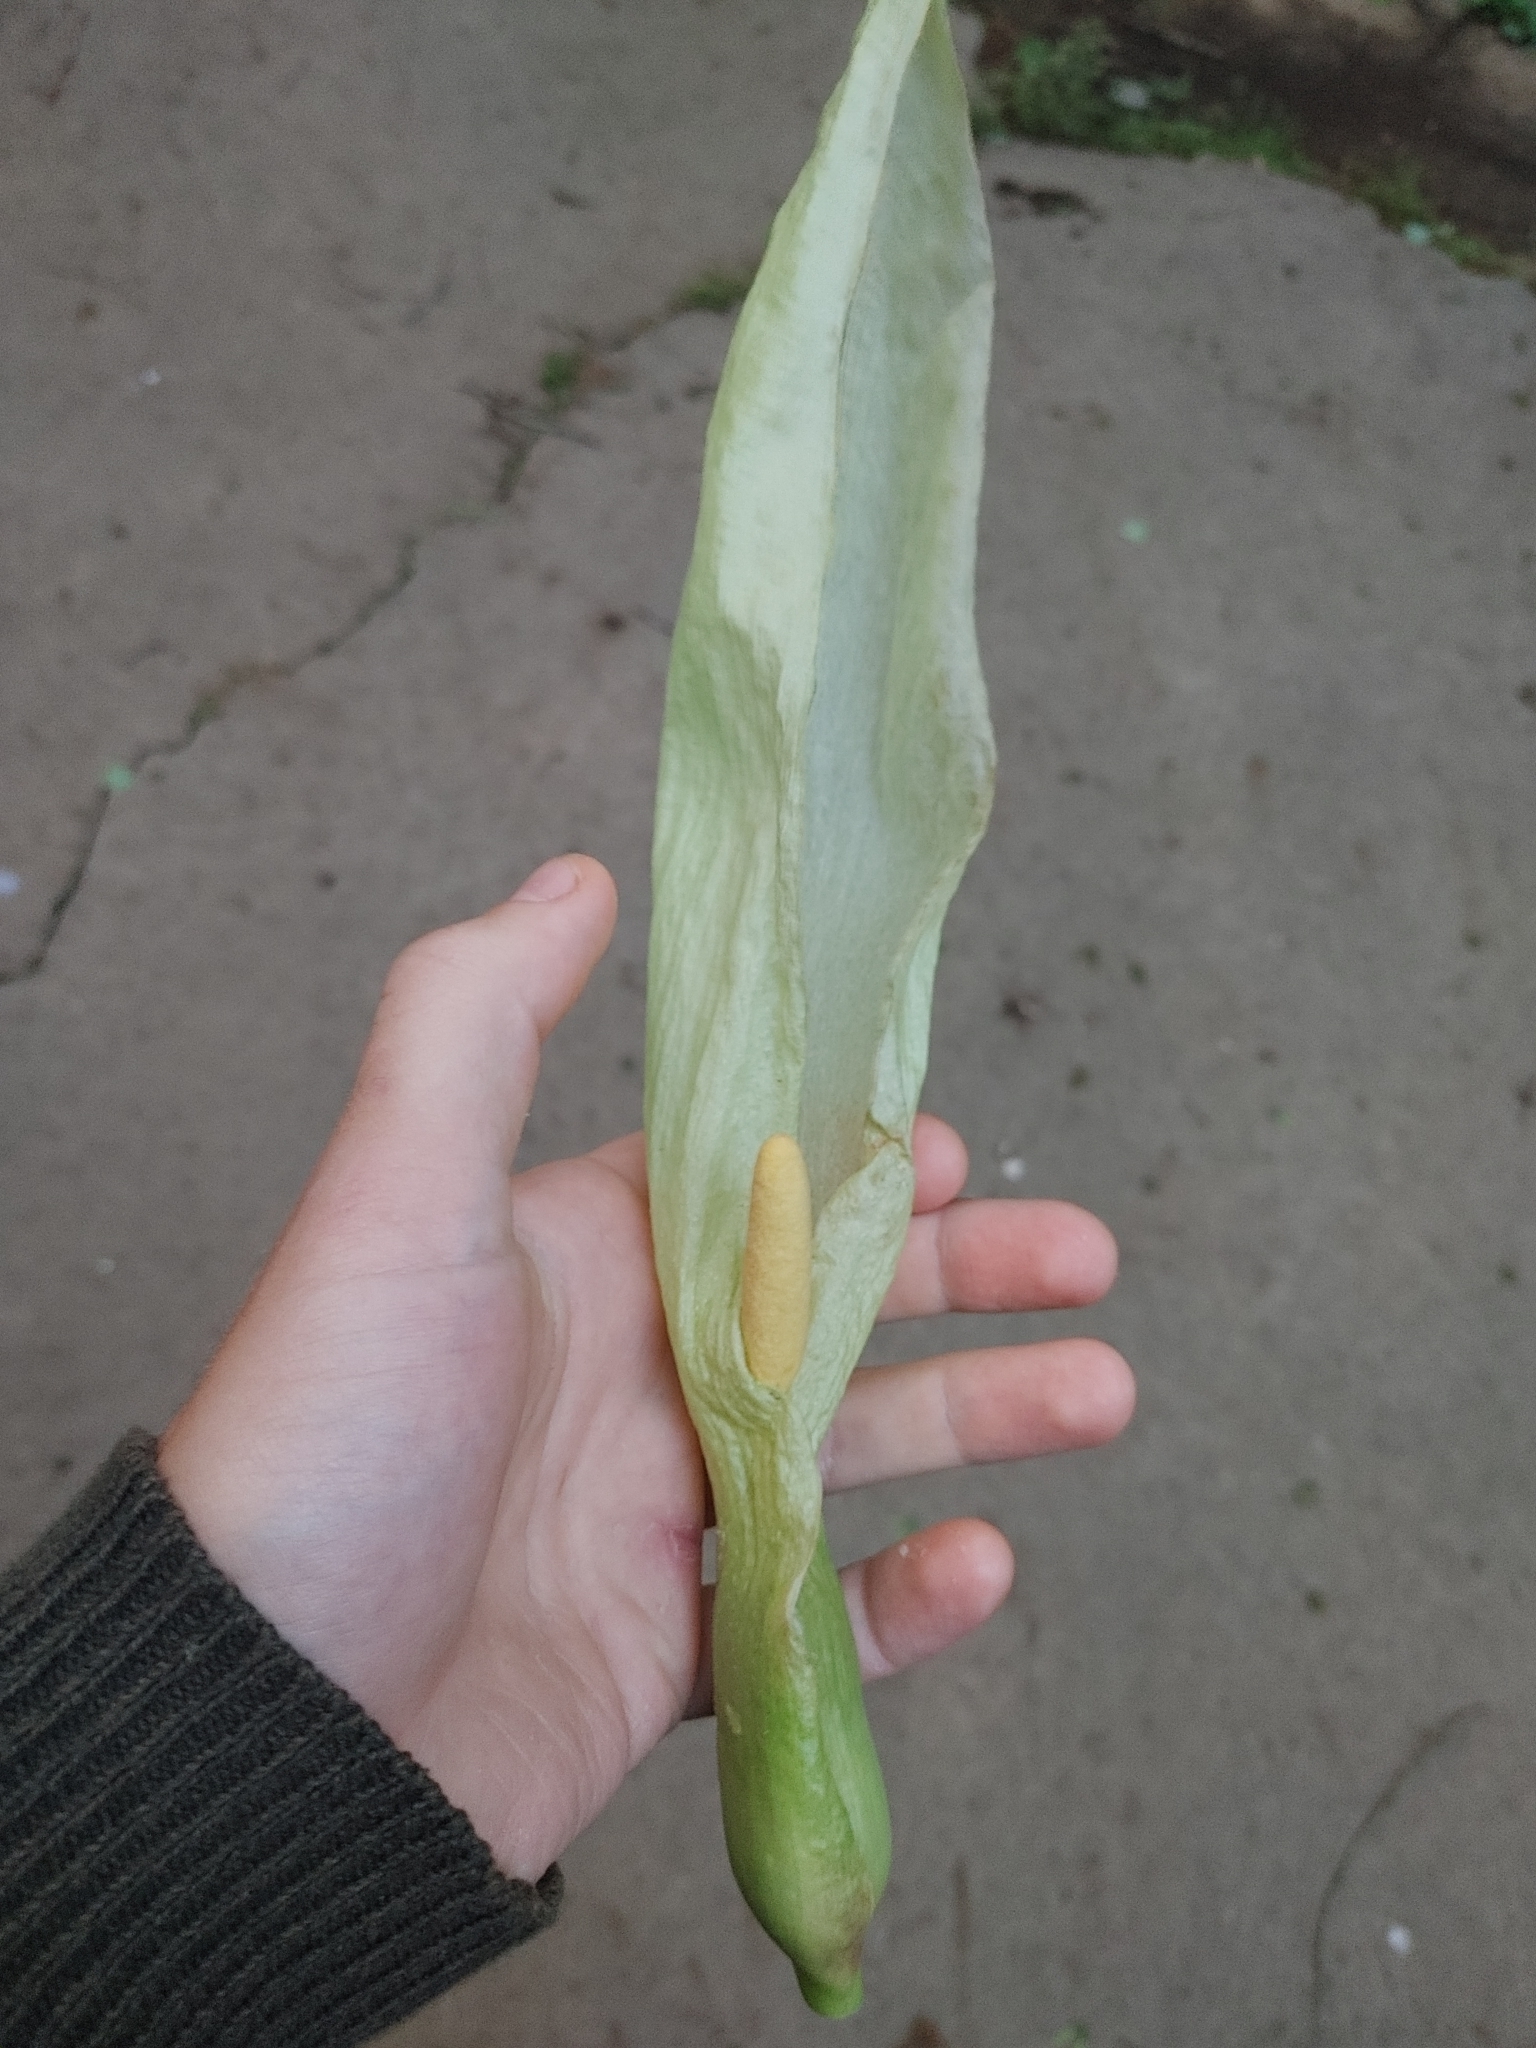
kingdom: Plantae
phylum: Tracheophyta
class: Liliopsida
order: Alismatales
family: Araceae
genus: Arum
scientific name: Arum italicum
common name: Italian lords-and-ladies
